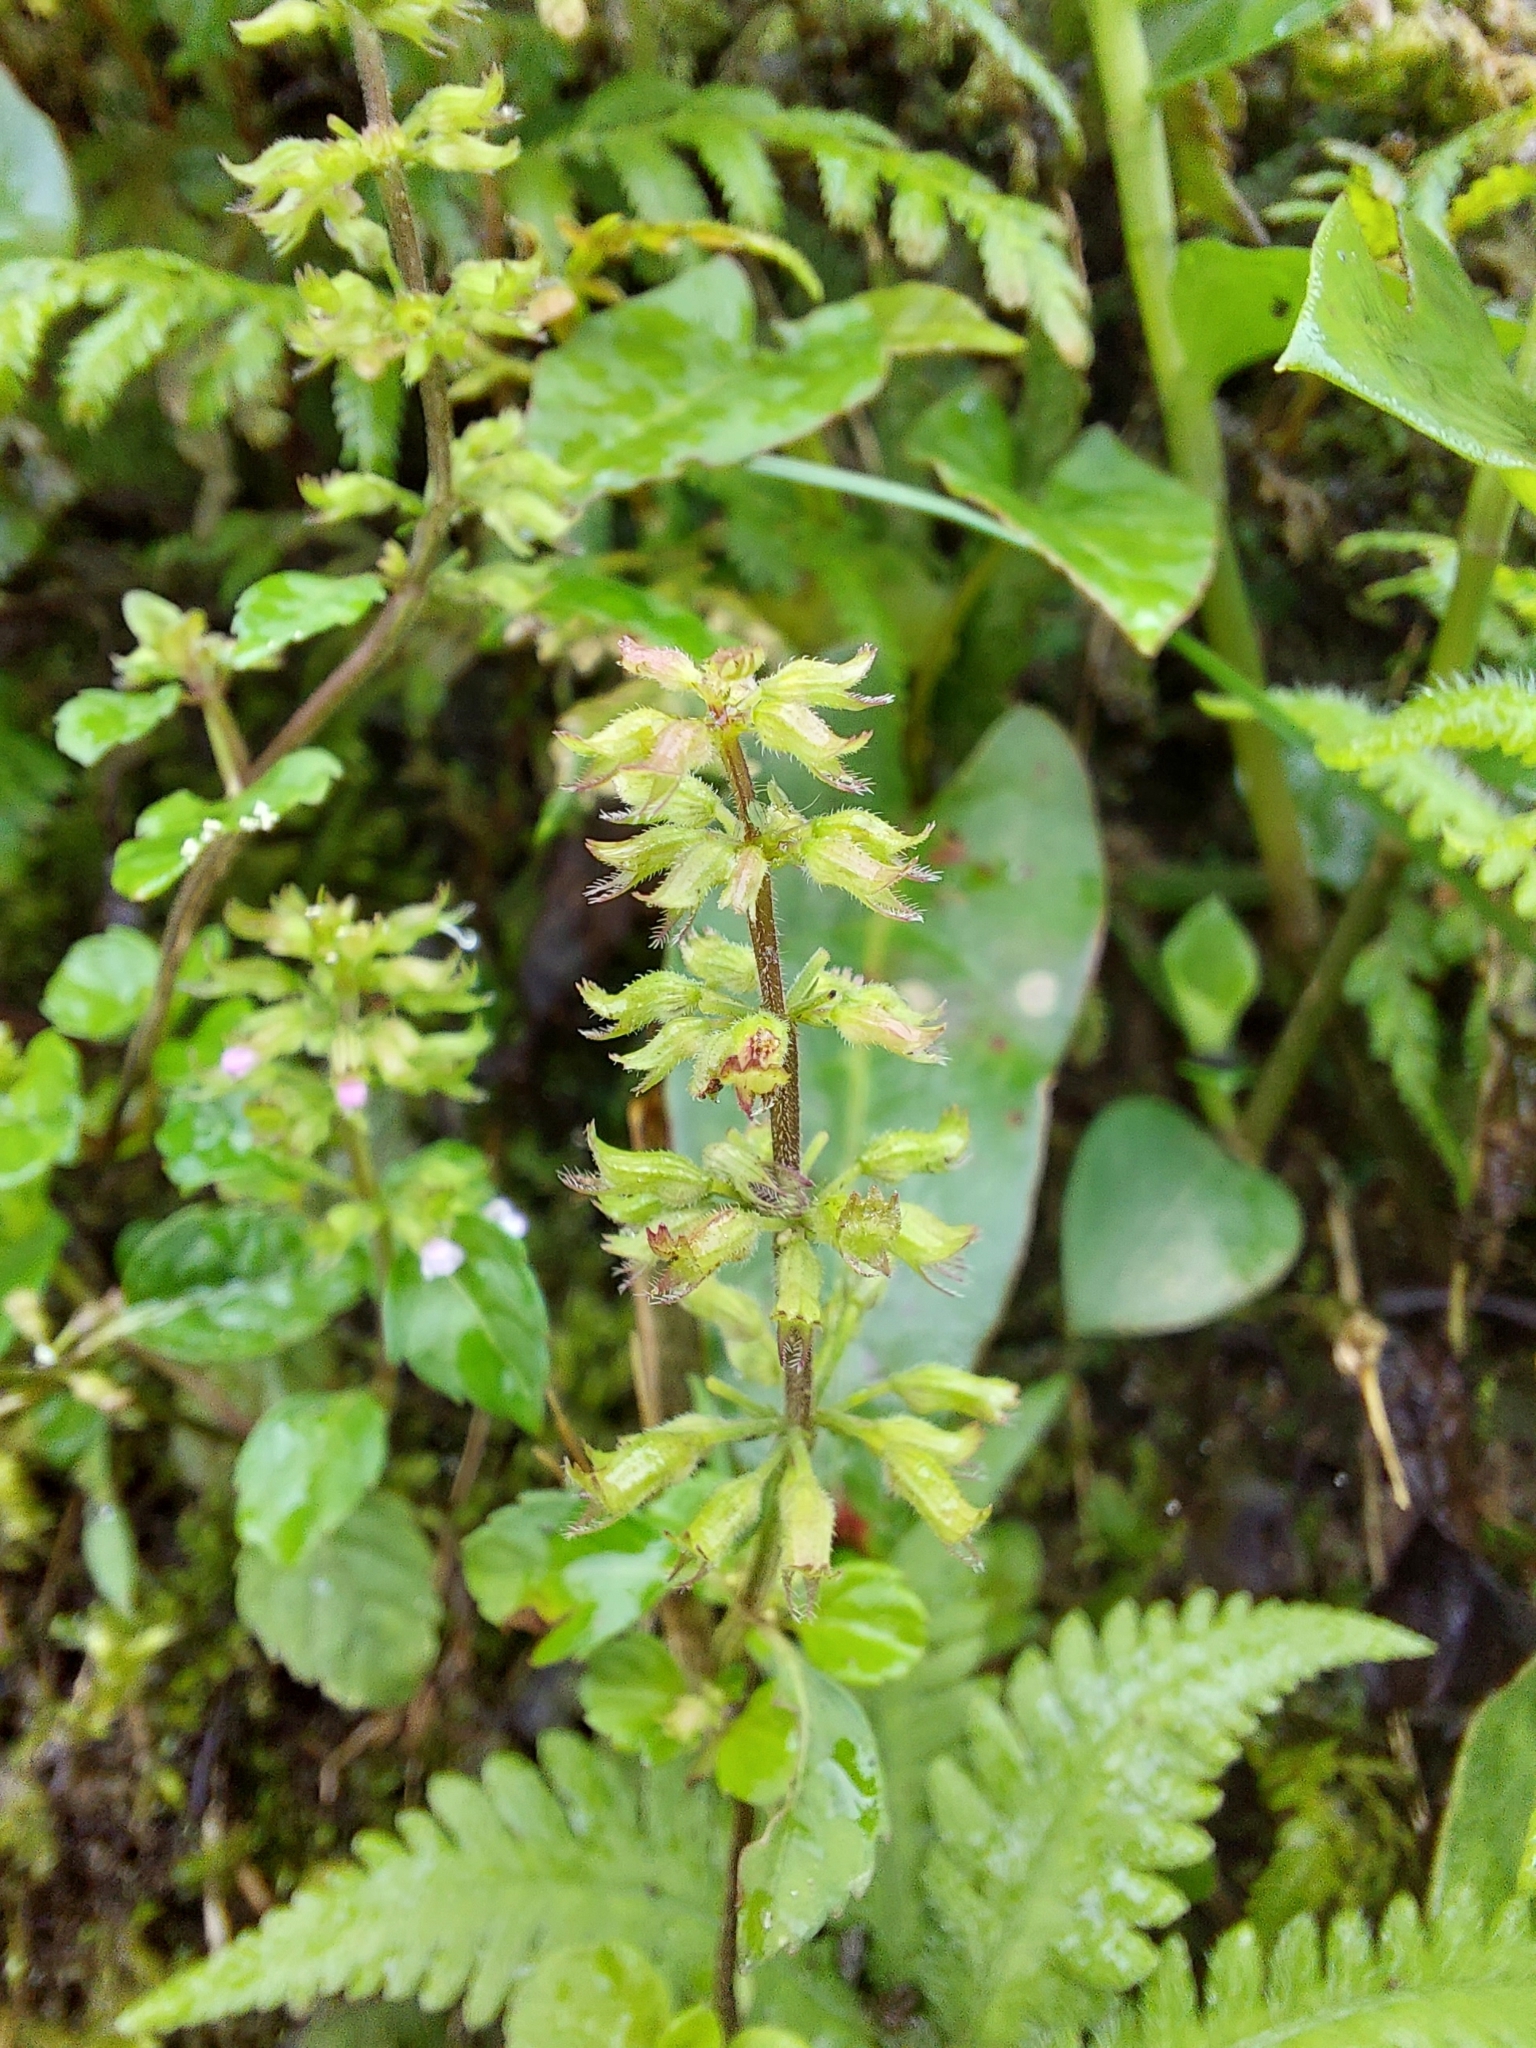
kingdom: Plantae
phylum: Tracheophyta
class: Magnoliopsida
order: Lamiales
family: Lamiaceae
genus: Clinopodium
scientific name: Clinopodium gracile
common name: Slender wild basil
